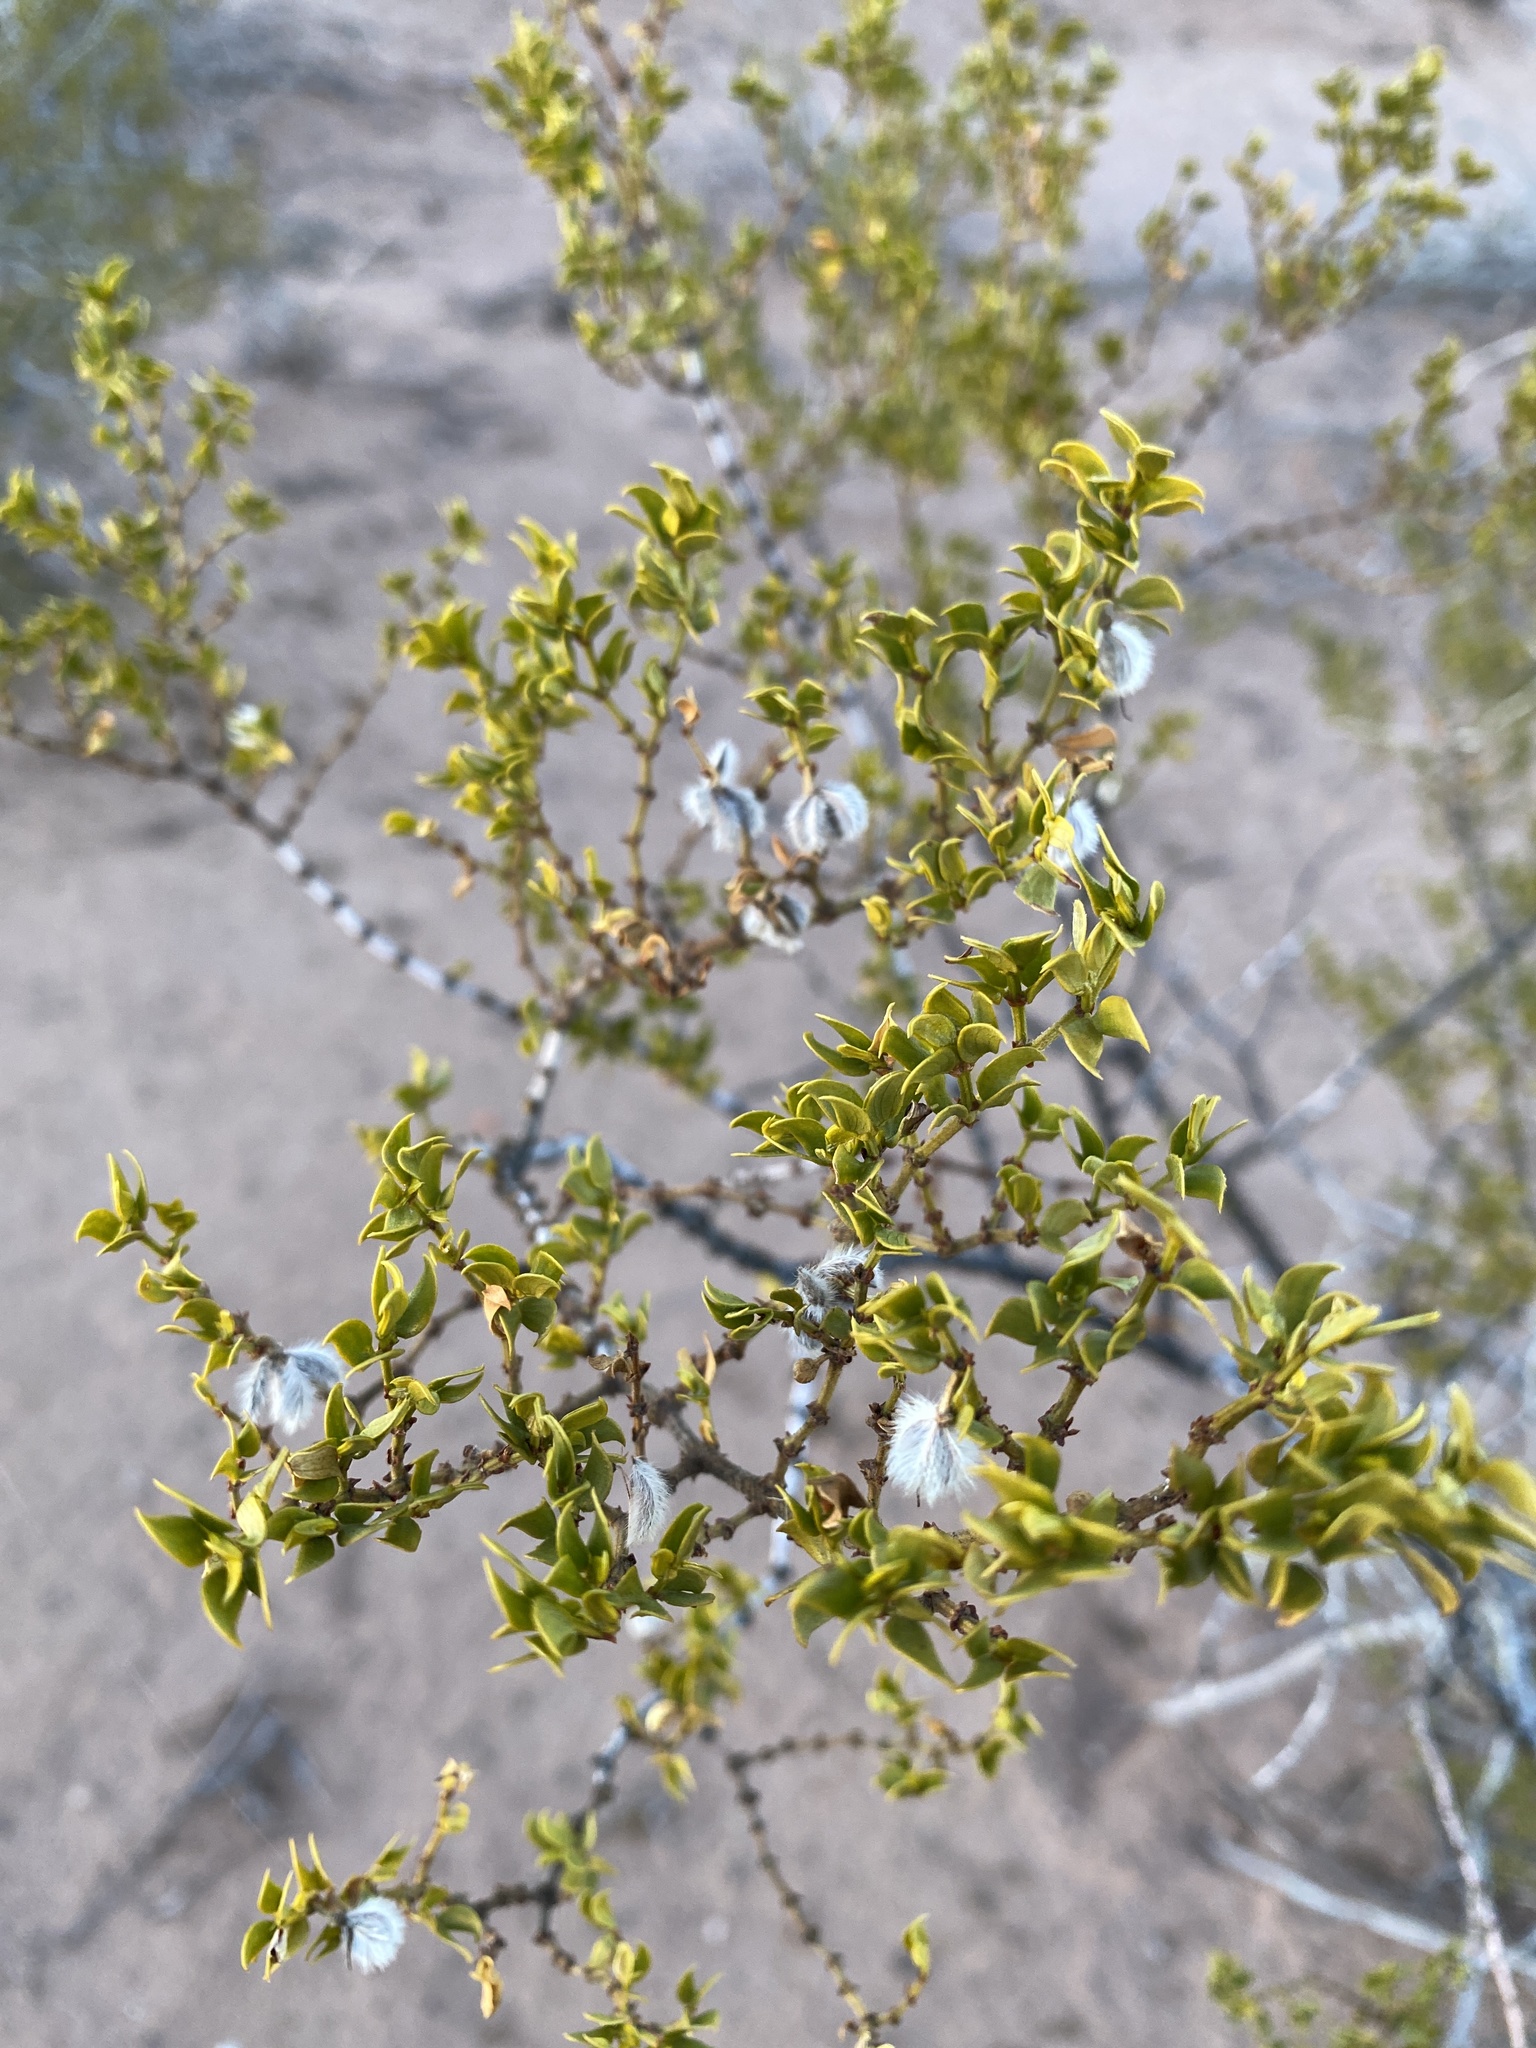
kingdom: Plantae
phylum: Tracheophyta
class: Magnoliopsida
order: Zygophyllales
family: Zygophyllaceae
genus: Larrea
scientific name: Larrea tridentata
